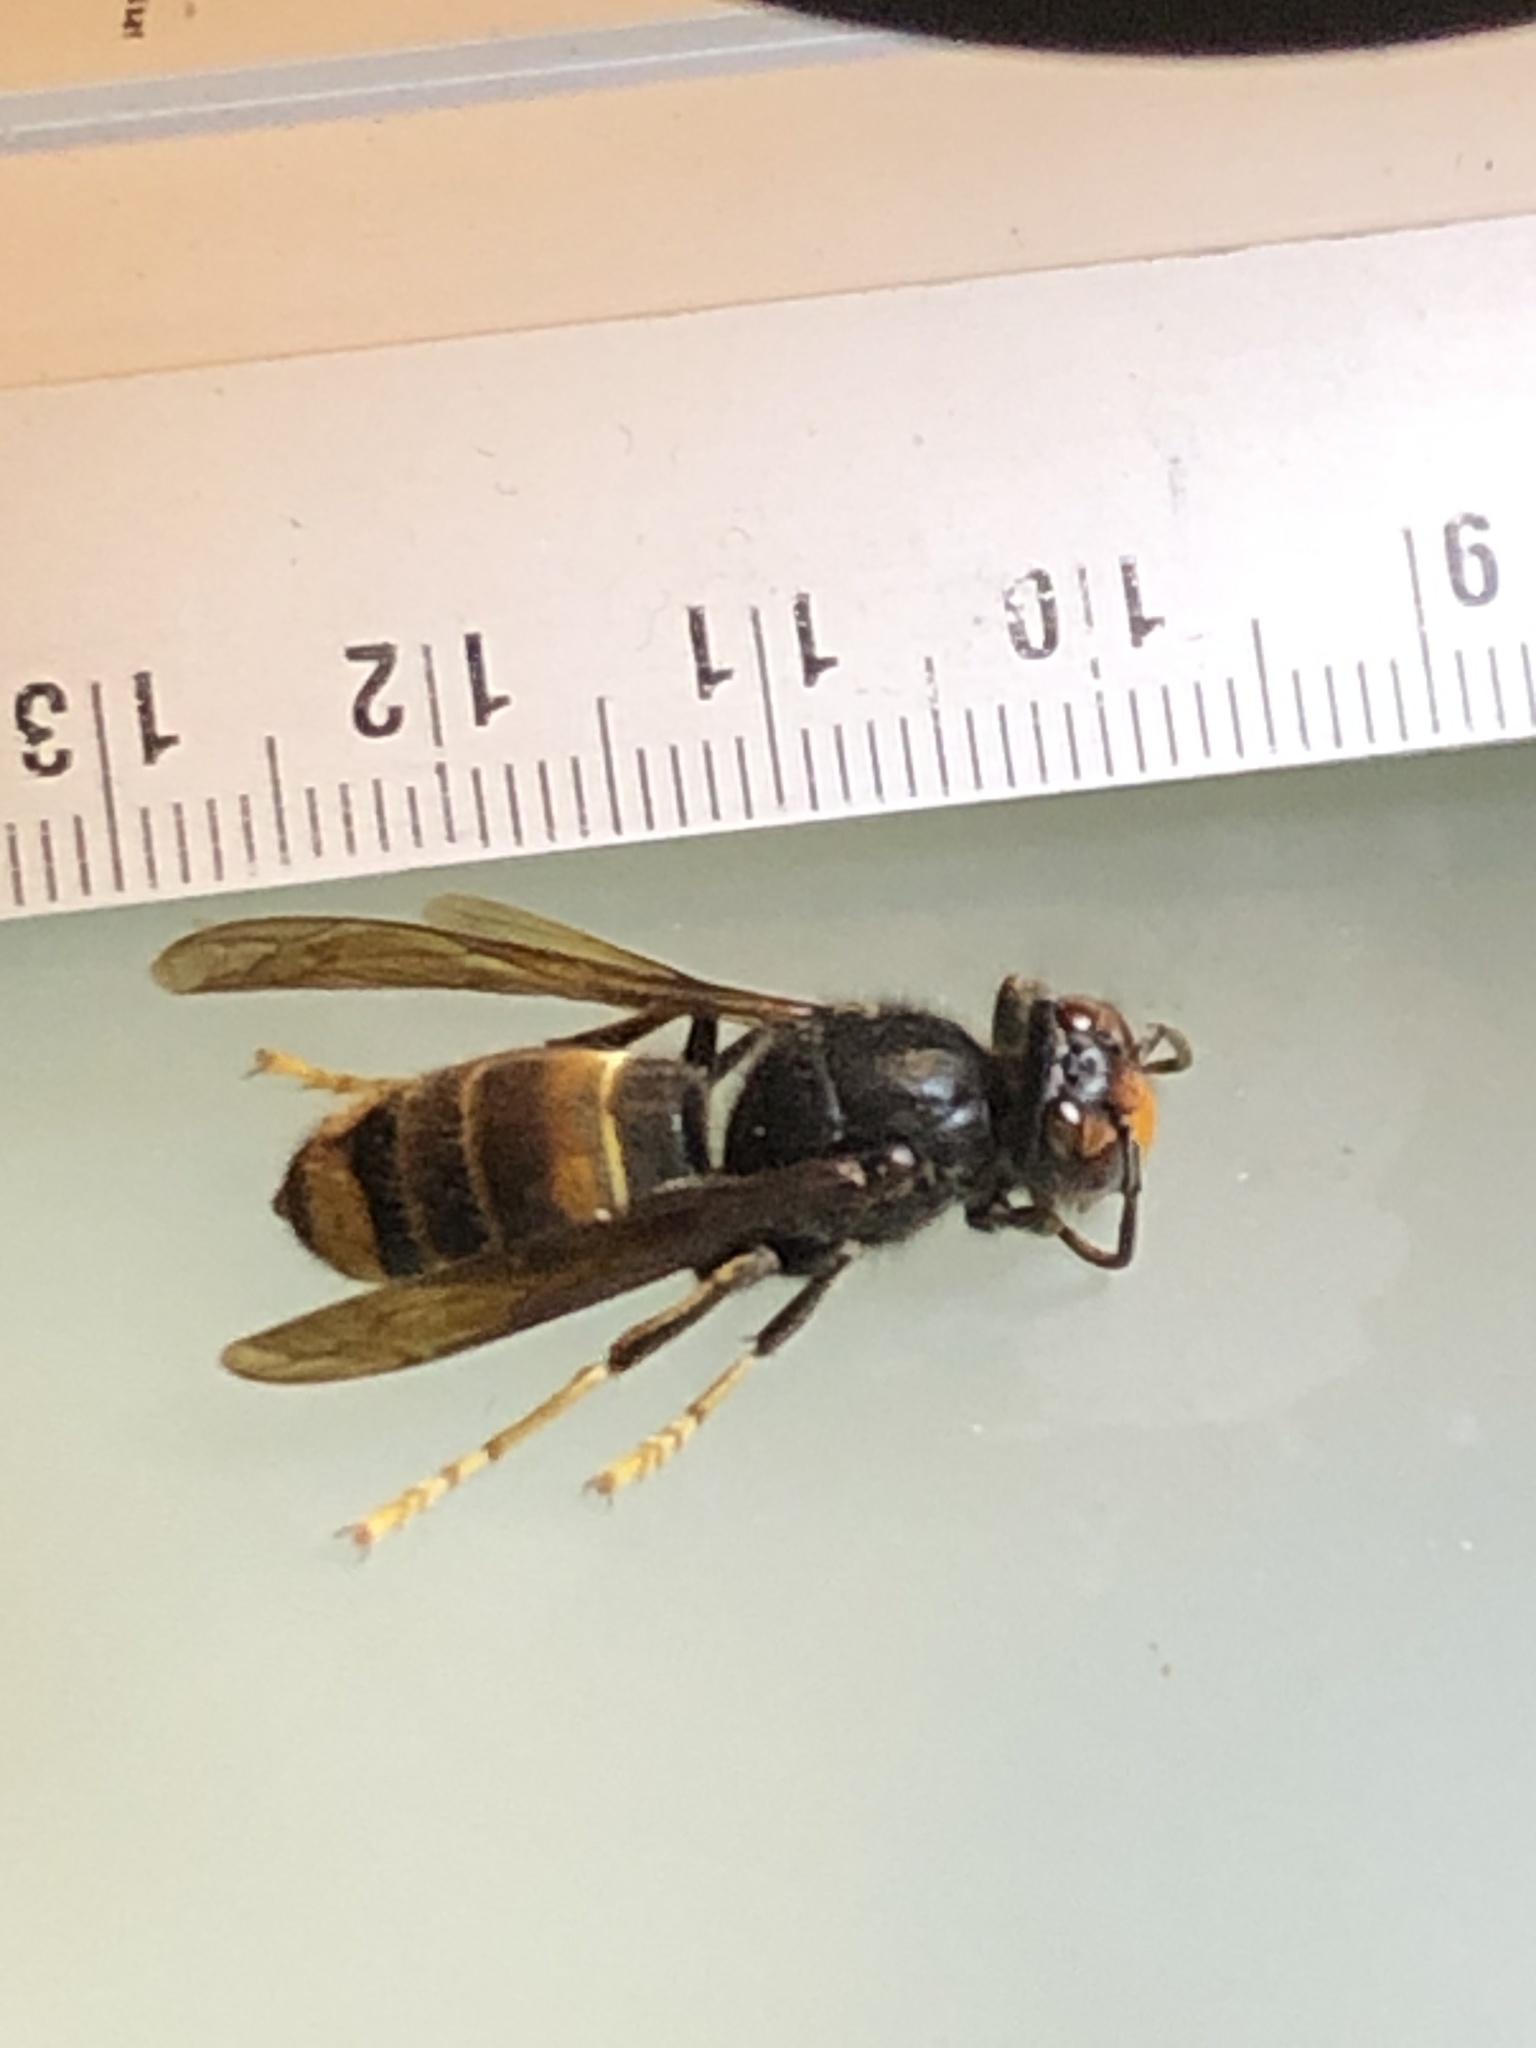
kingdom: Animalia
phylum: Arthropoda
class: Insecta
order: Hymenoptera
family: Vespidae
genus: Vespa
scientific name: Vespa velutina
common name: Asian hornet
